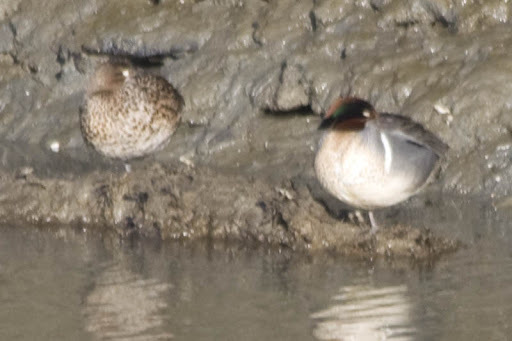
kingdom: Animalia
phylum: Chordata
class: Aves
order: Anseriformes
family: Anatidae
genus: Anas
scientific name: Anas crecca
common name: Eurasian teal
